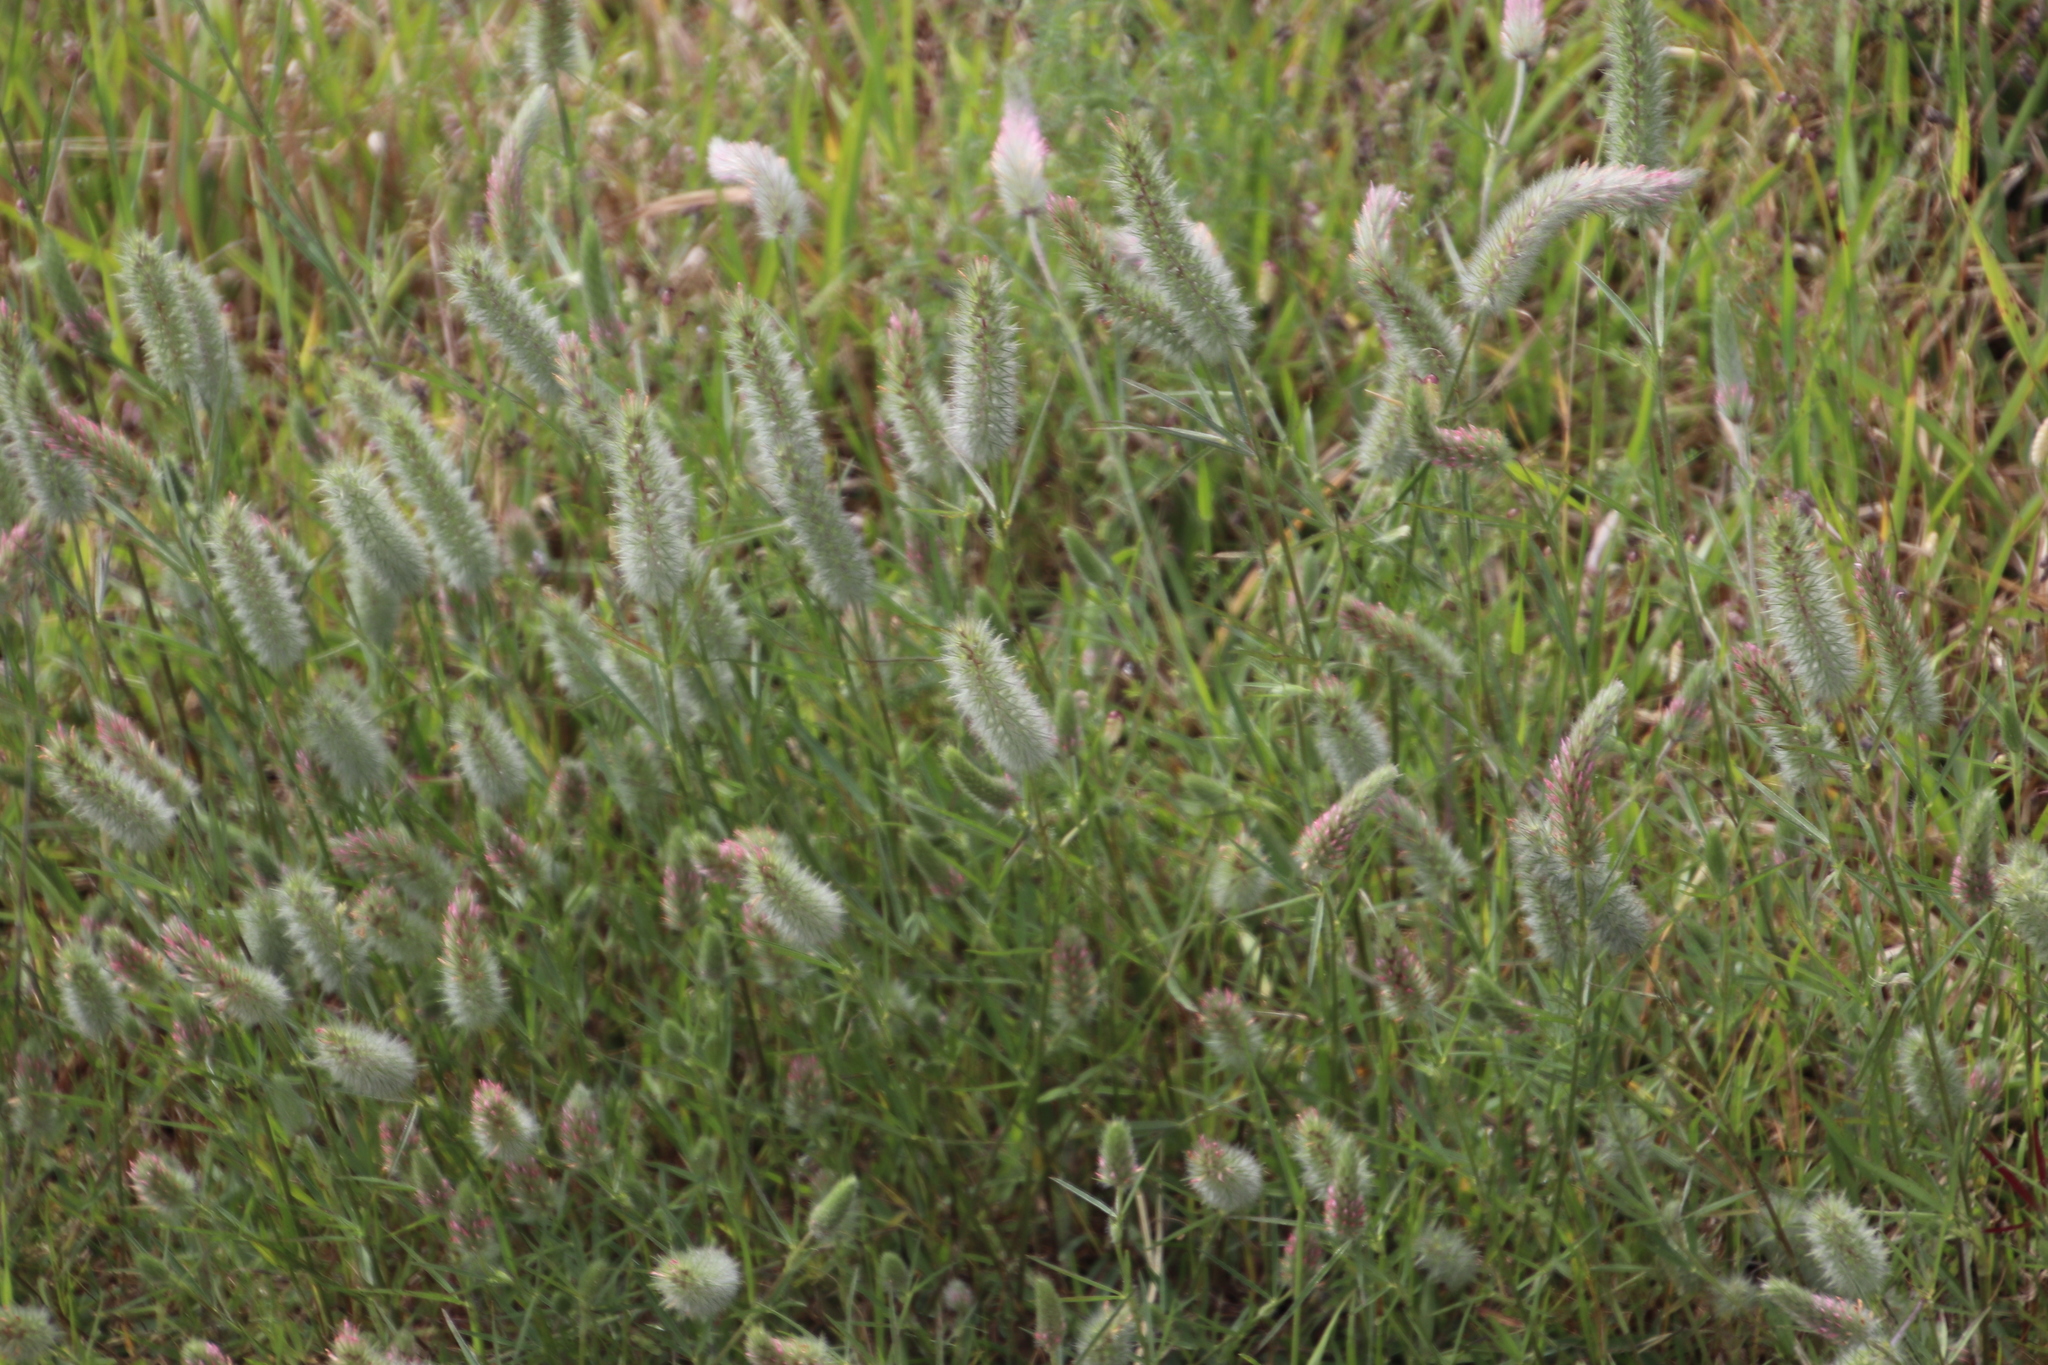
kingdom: Plantae
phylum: Tracheophyta
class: Magnoliopsida
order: Fabales
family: Fabaceae
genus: Trifolium
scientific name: Trifolium angustifolium
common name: Narrow clover
